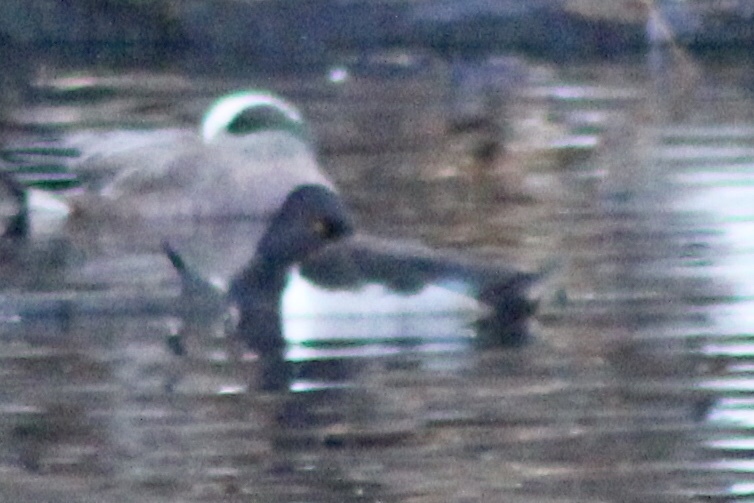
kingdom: Animalia
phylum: Chordata
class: Aves
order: Anseriformes
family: Anatidae
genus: Aythya
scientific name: Aythya collaris
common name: Ring-necked duck
